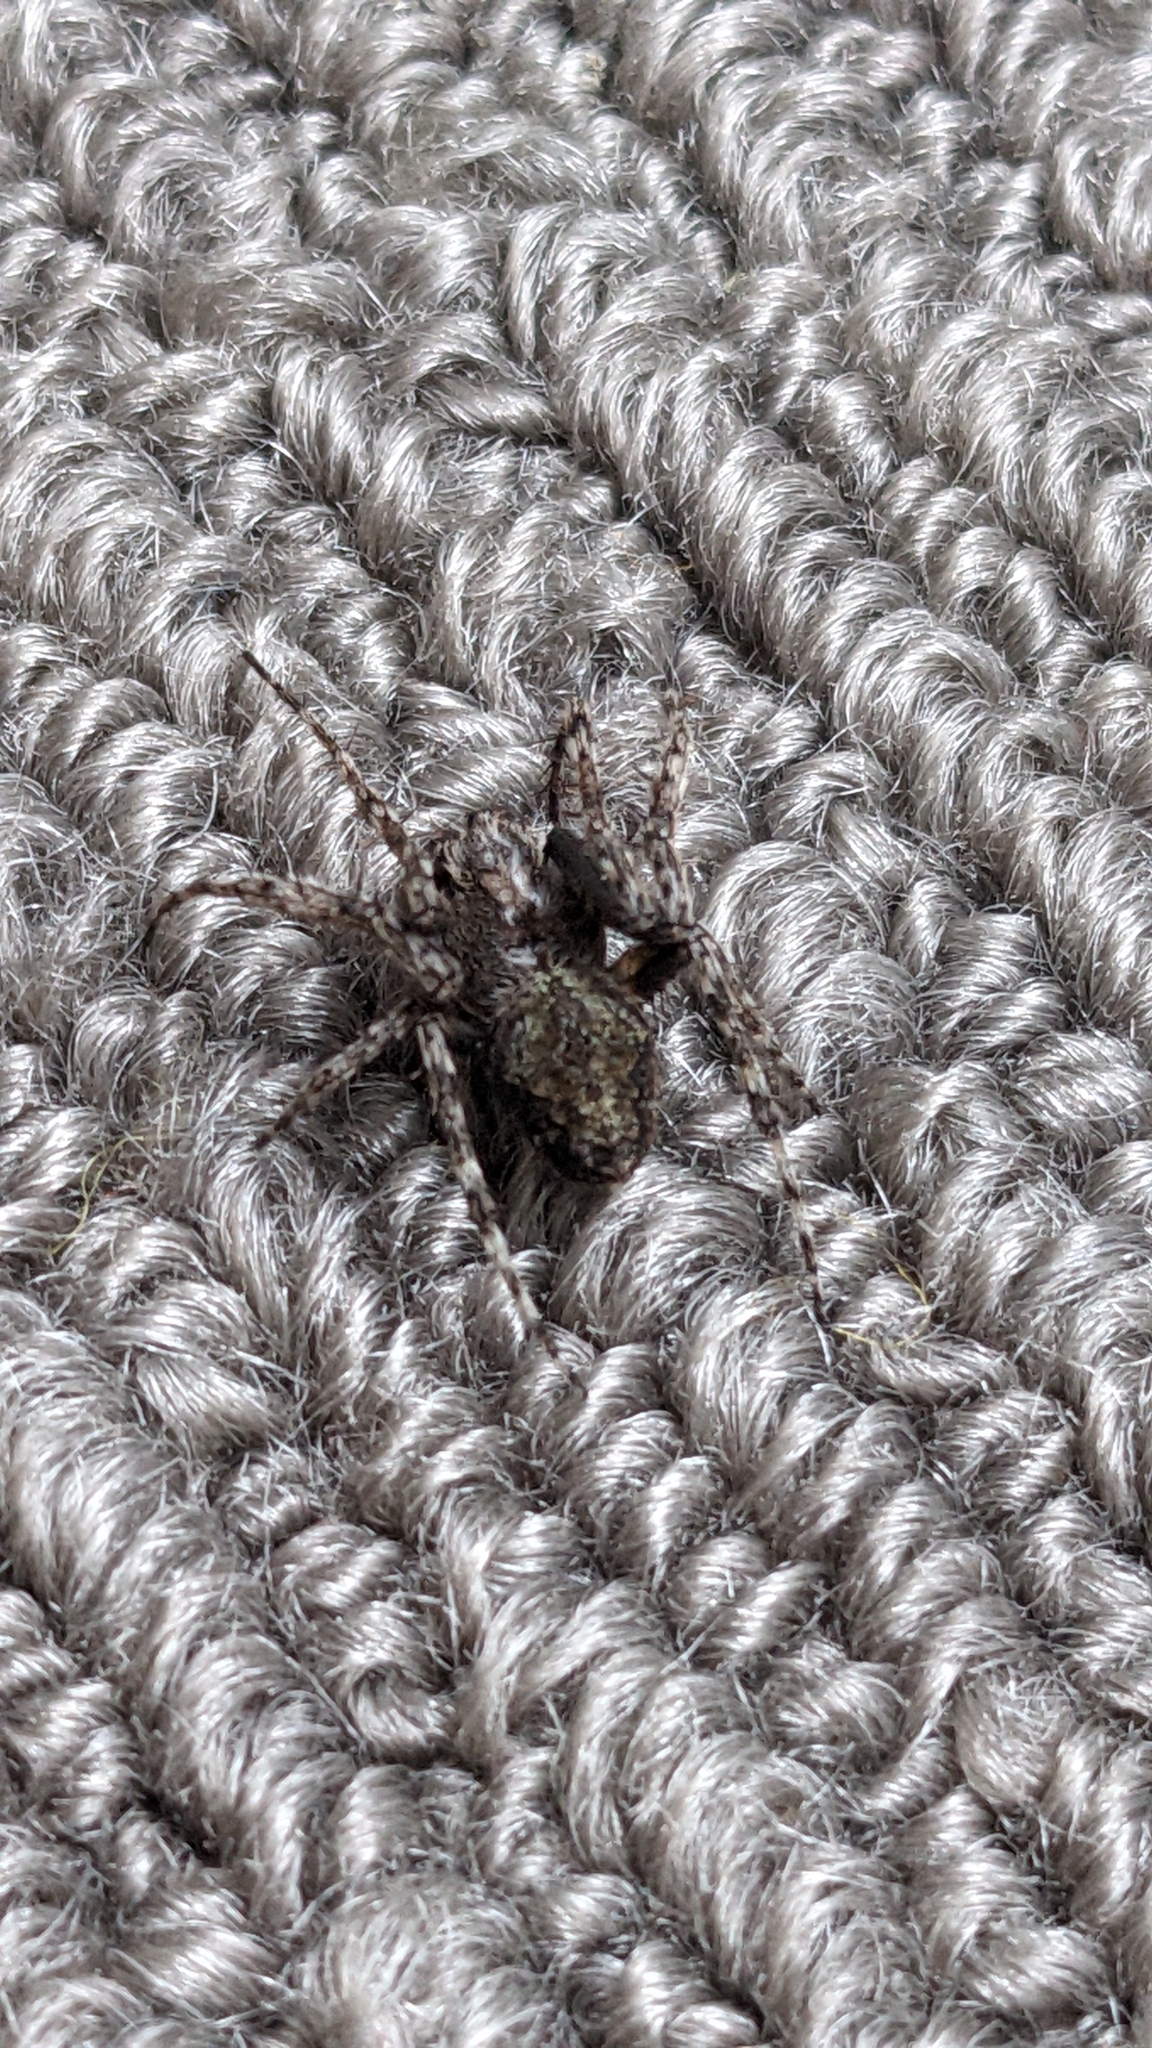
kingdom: Animalia
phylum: Arthropoda
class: Arachnida
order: Araneae
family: Araneidae
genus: Eriophora
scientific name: Eriophora pustulosa
